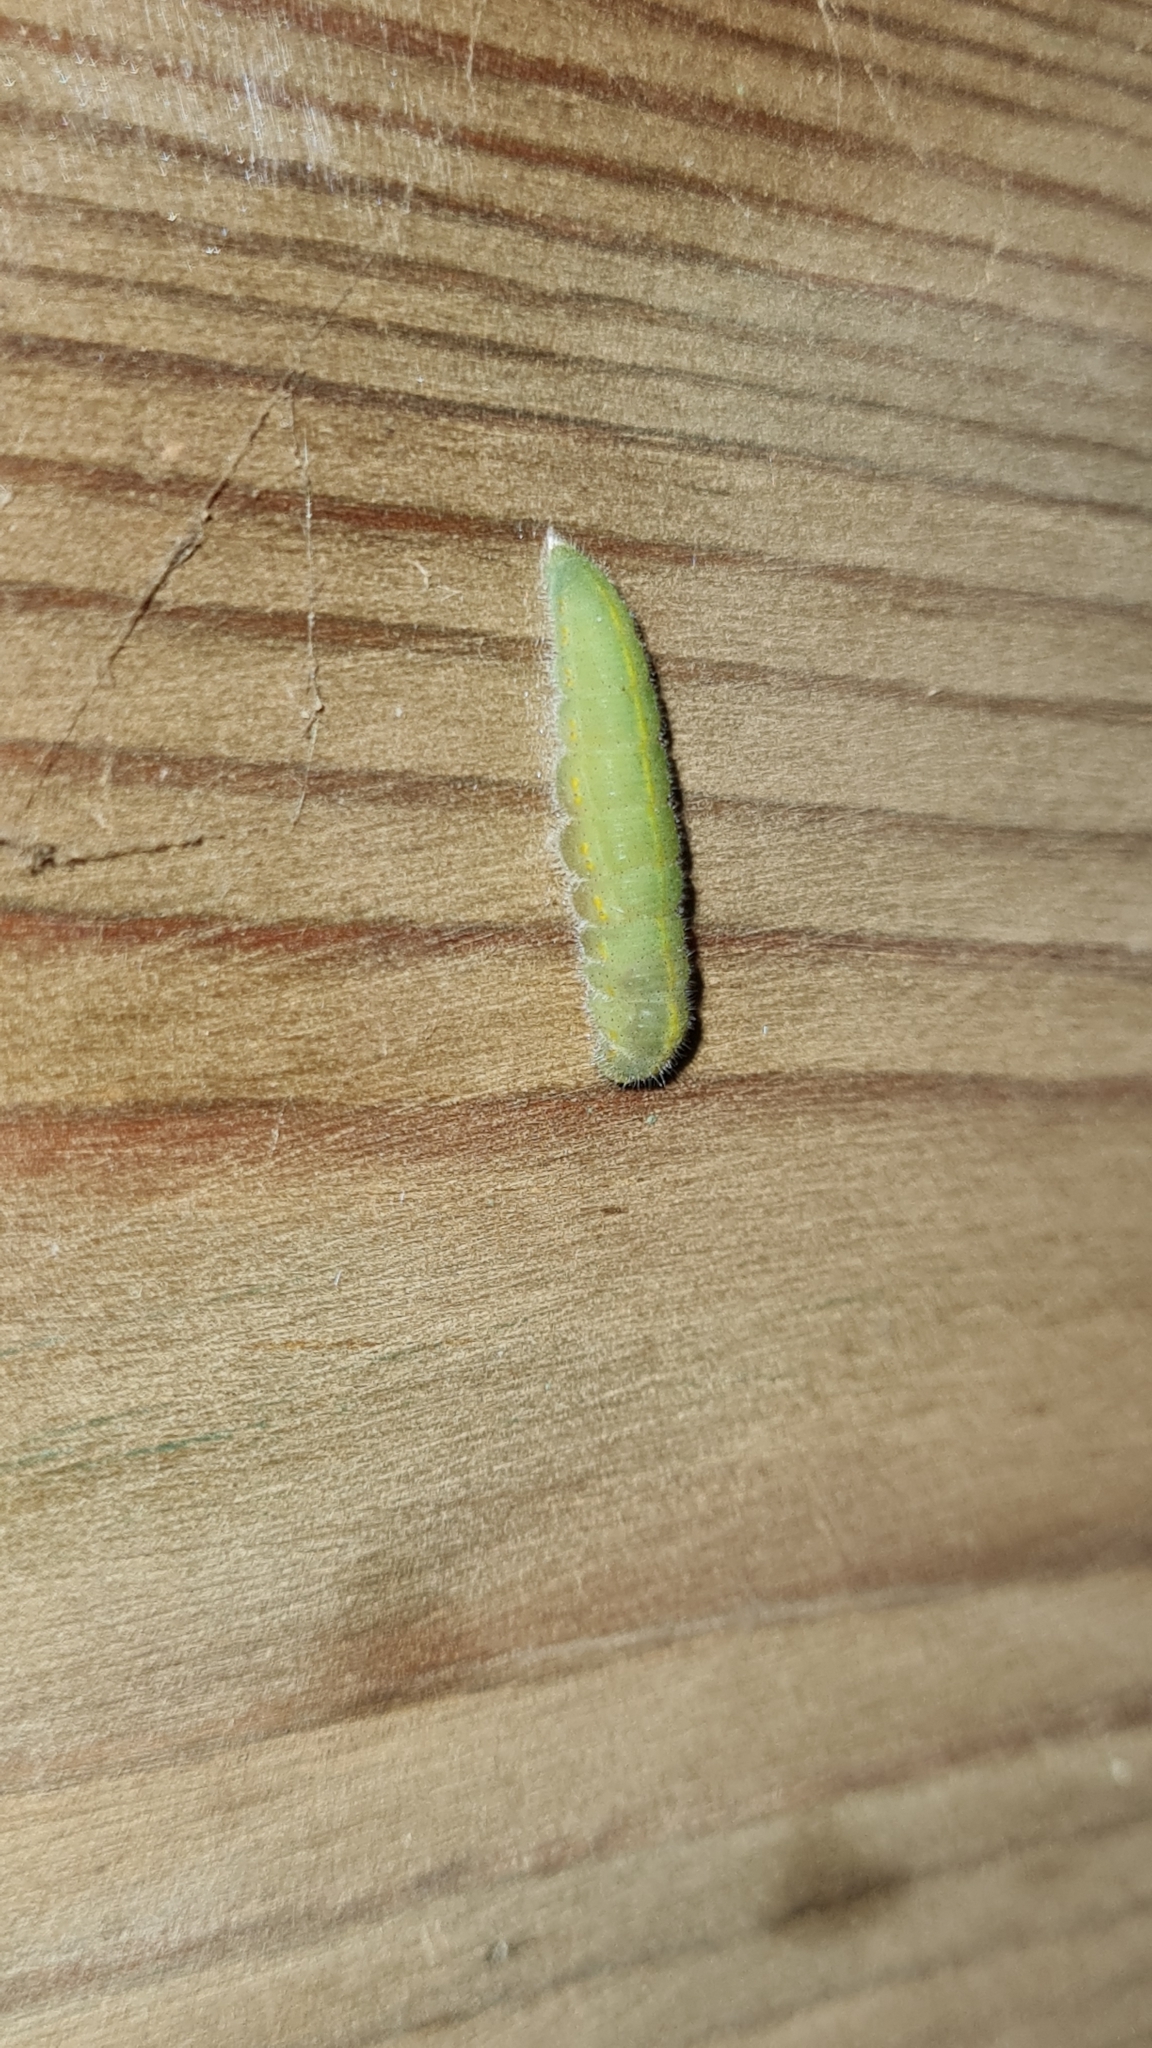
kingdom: Animalia
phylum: Arthropoda
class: Insecta
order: Lepidoptera
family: Pieridae
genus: Pieris
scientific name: Pieris rapae
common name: Small white
